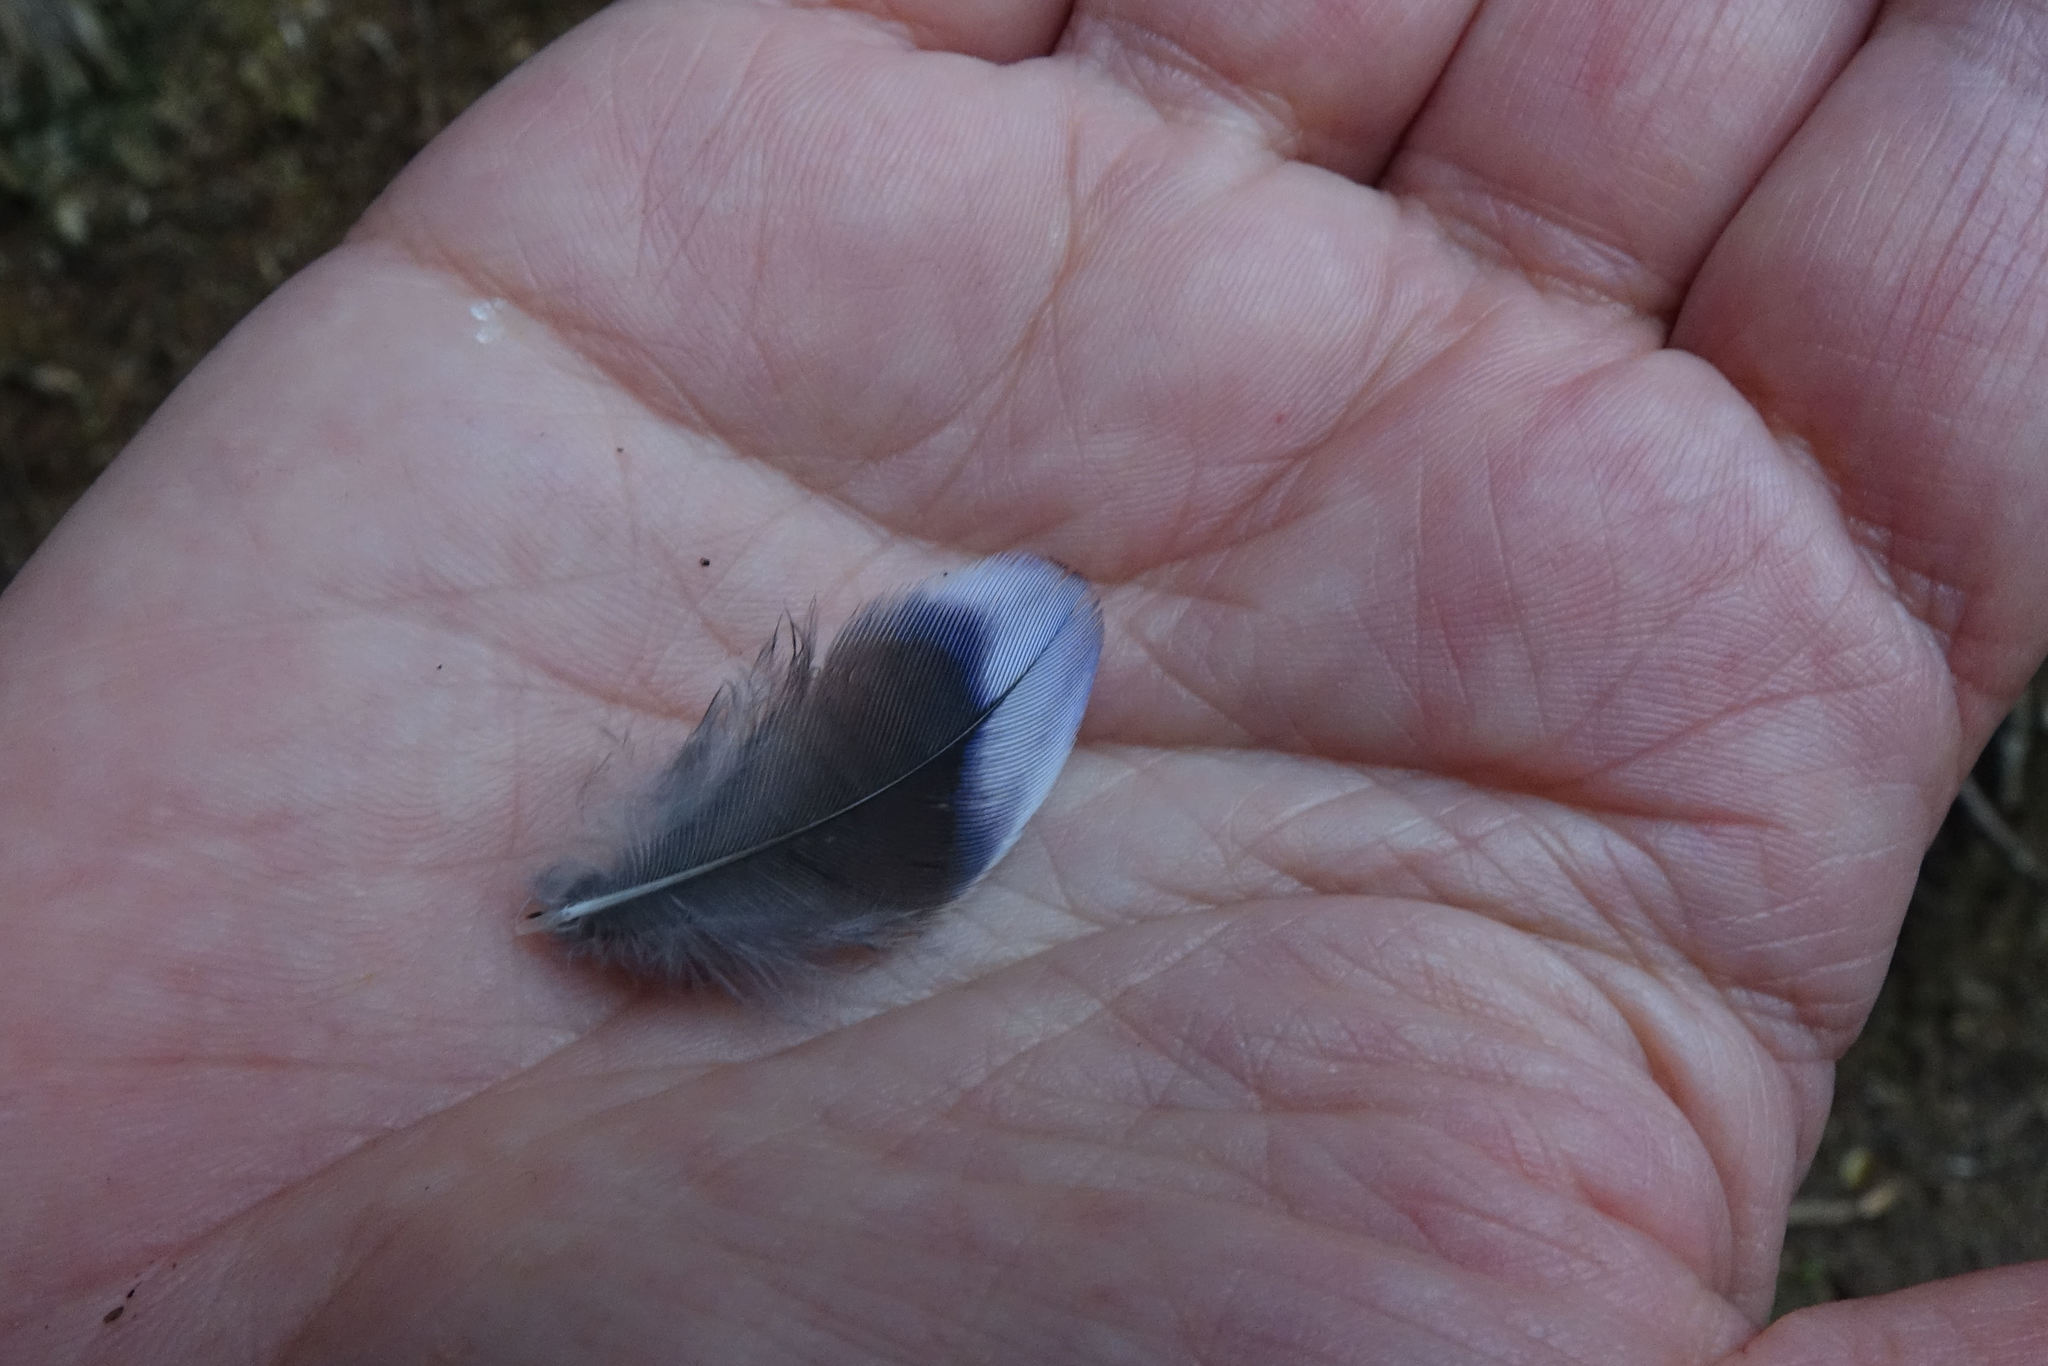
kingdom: Animalia
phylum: Chordata
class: Aves
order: Psittaciformes
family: Psittacidae
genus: Platycercus
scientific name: Platycercus eximius
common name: Eastern rosella
